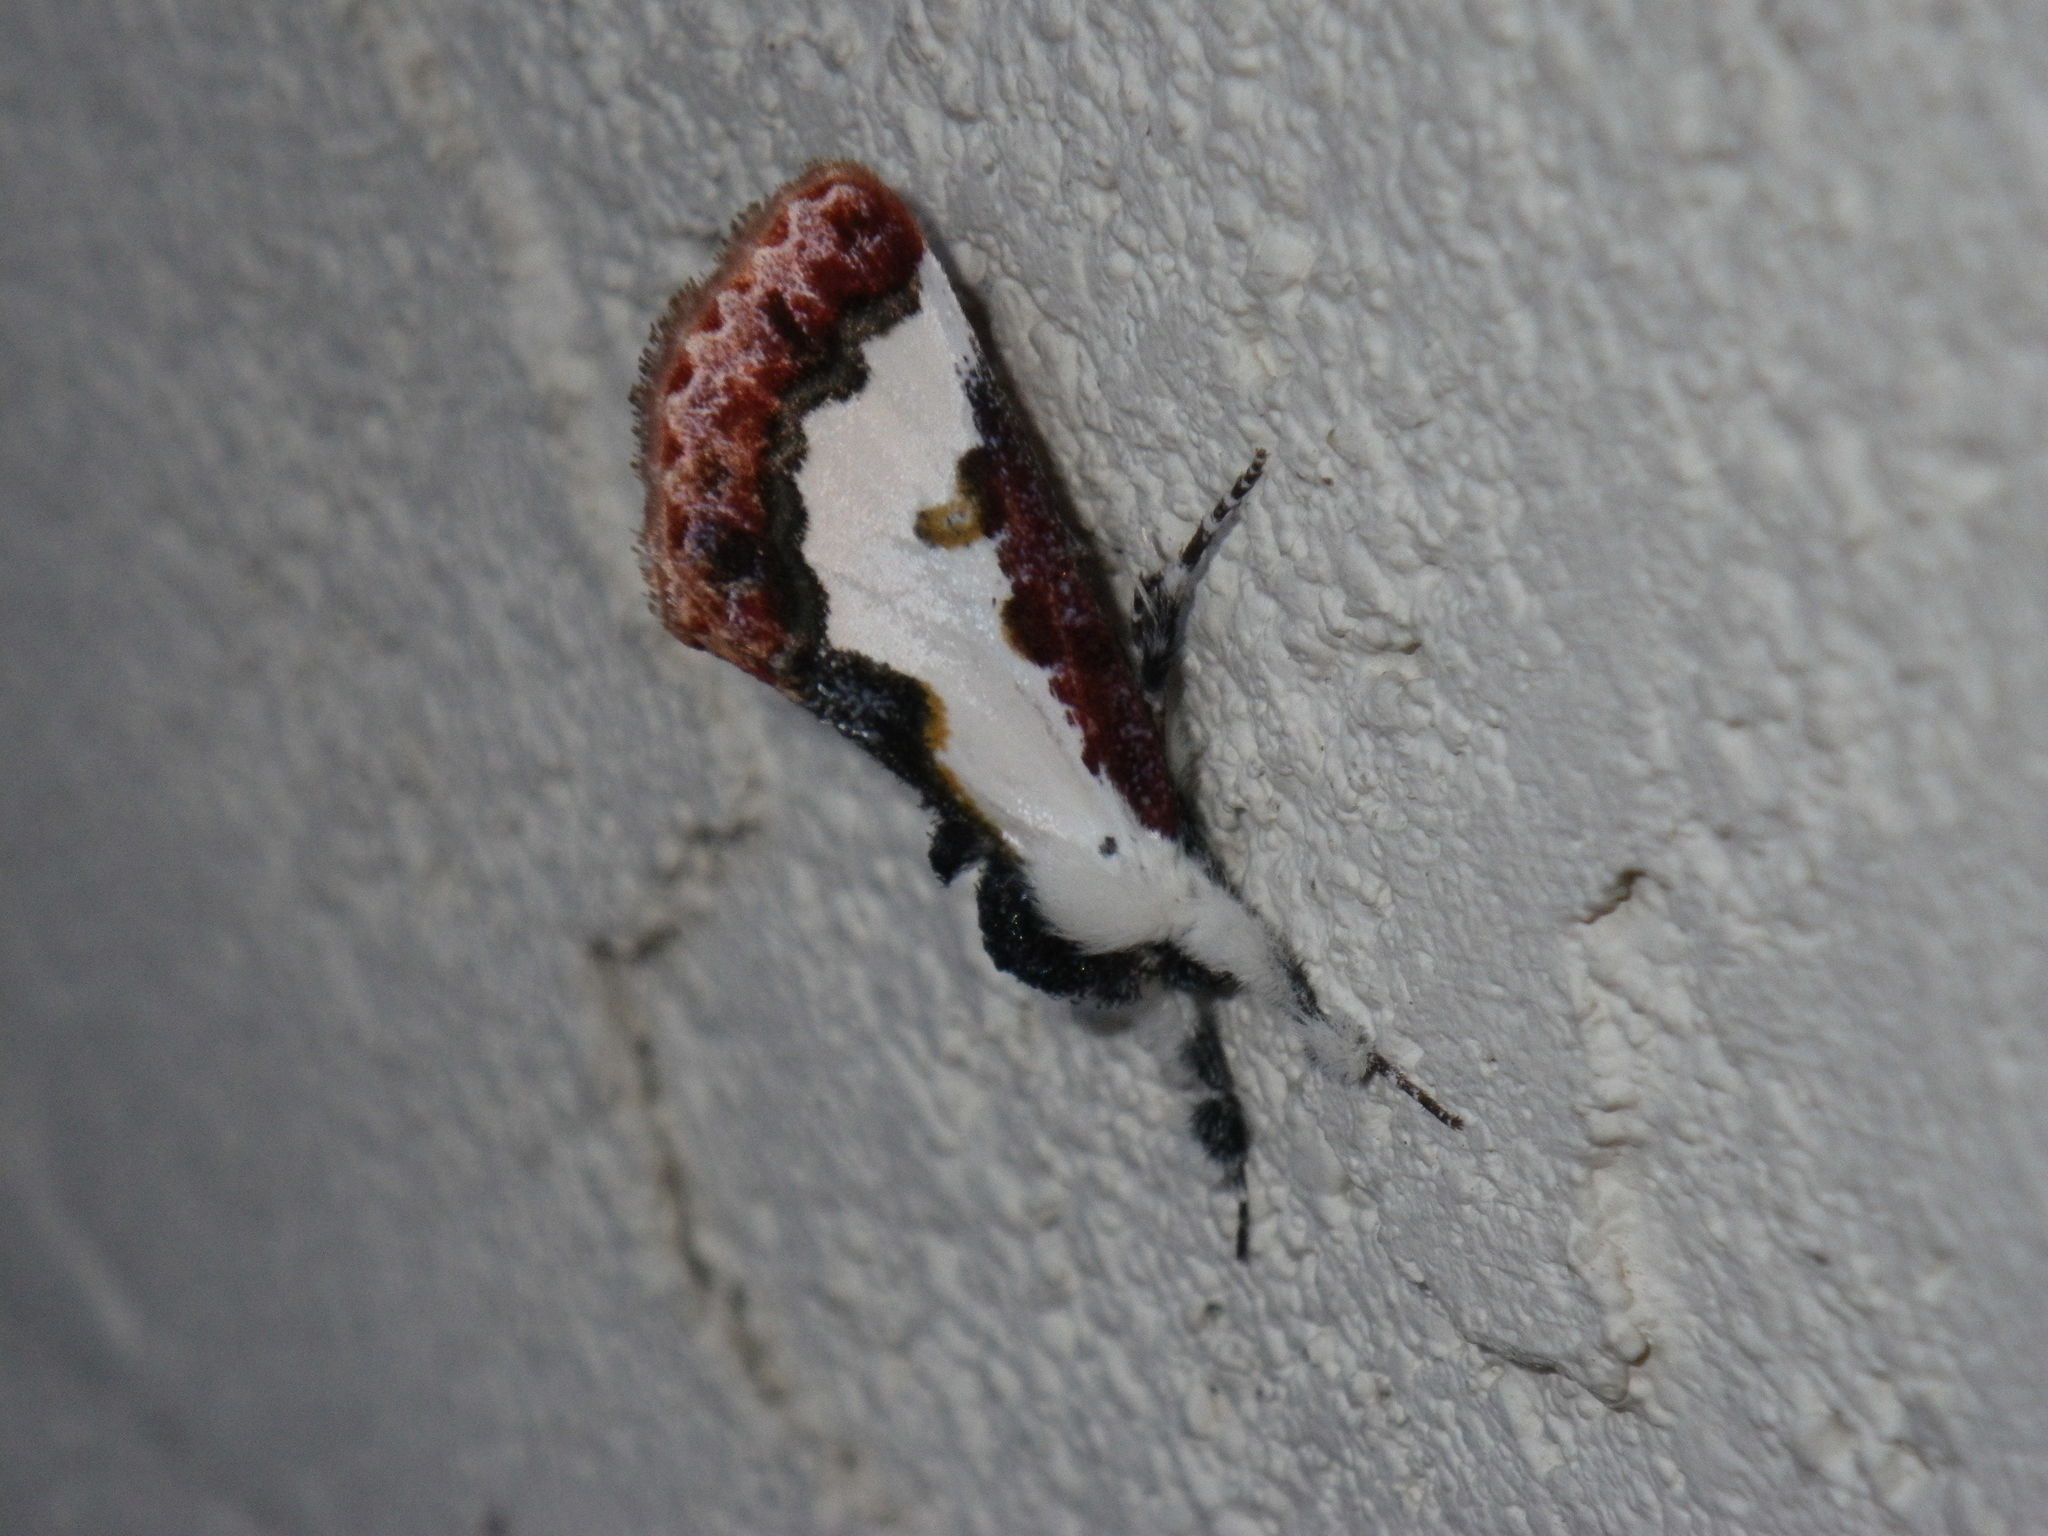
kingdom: Animalia
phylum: Arthropoda
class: Insecta
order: Lepidoptera
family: Noctuidae
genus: Eudryas
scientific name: Eudryas brevipennis
